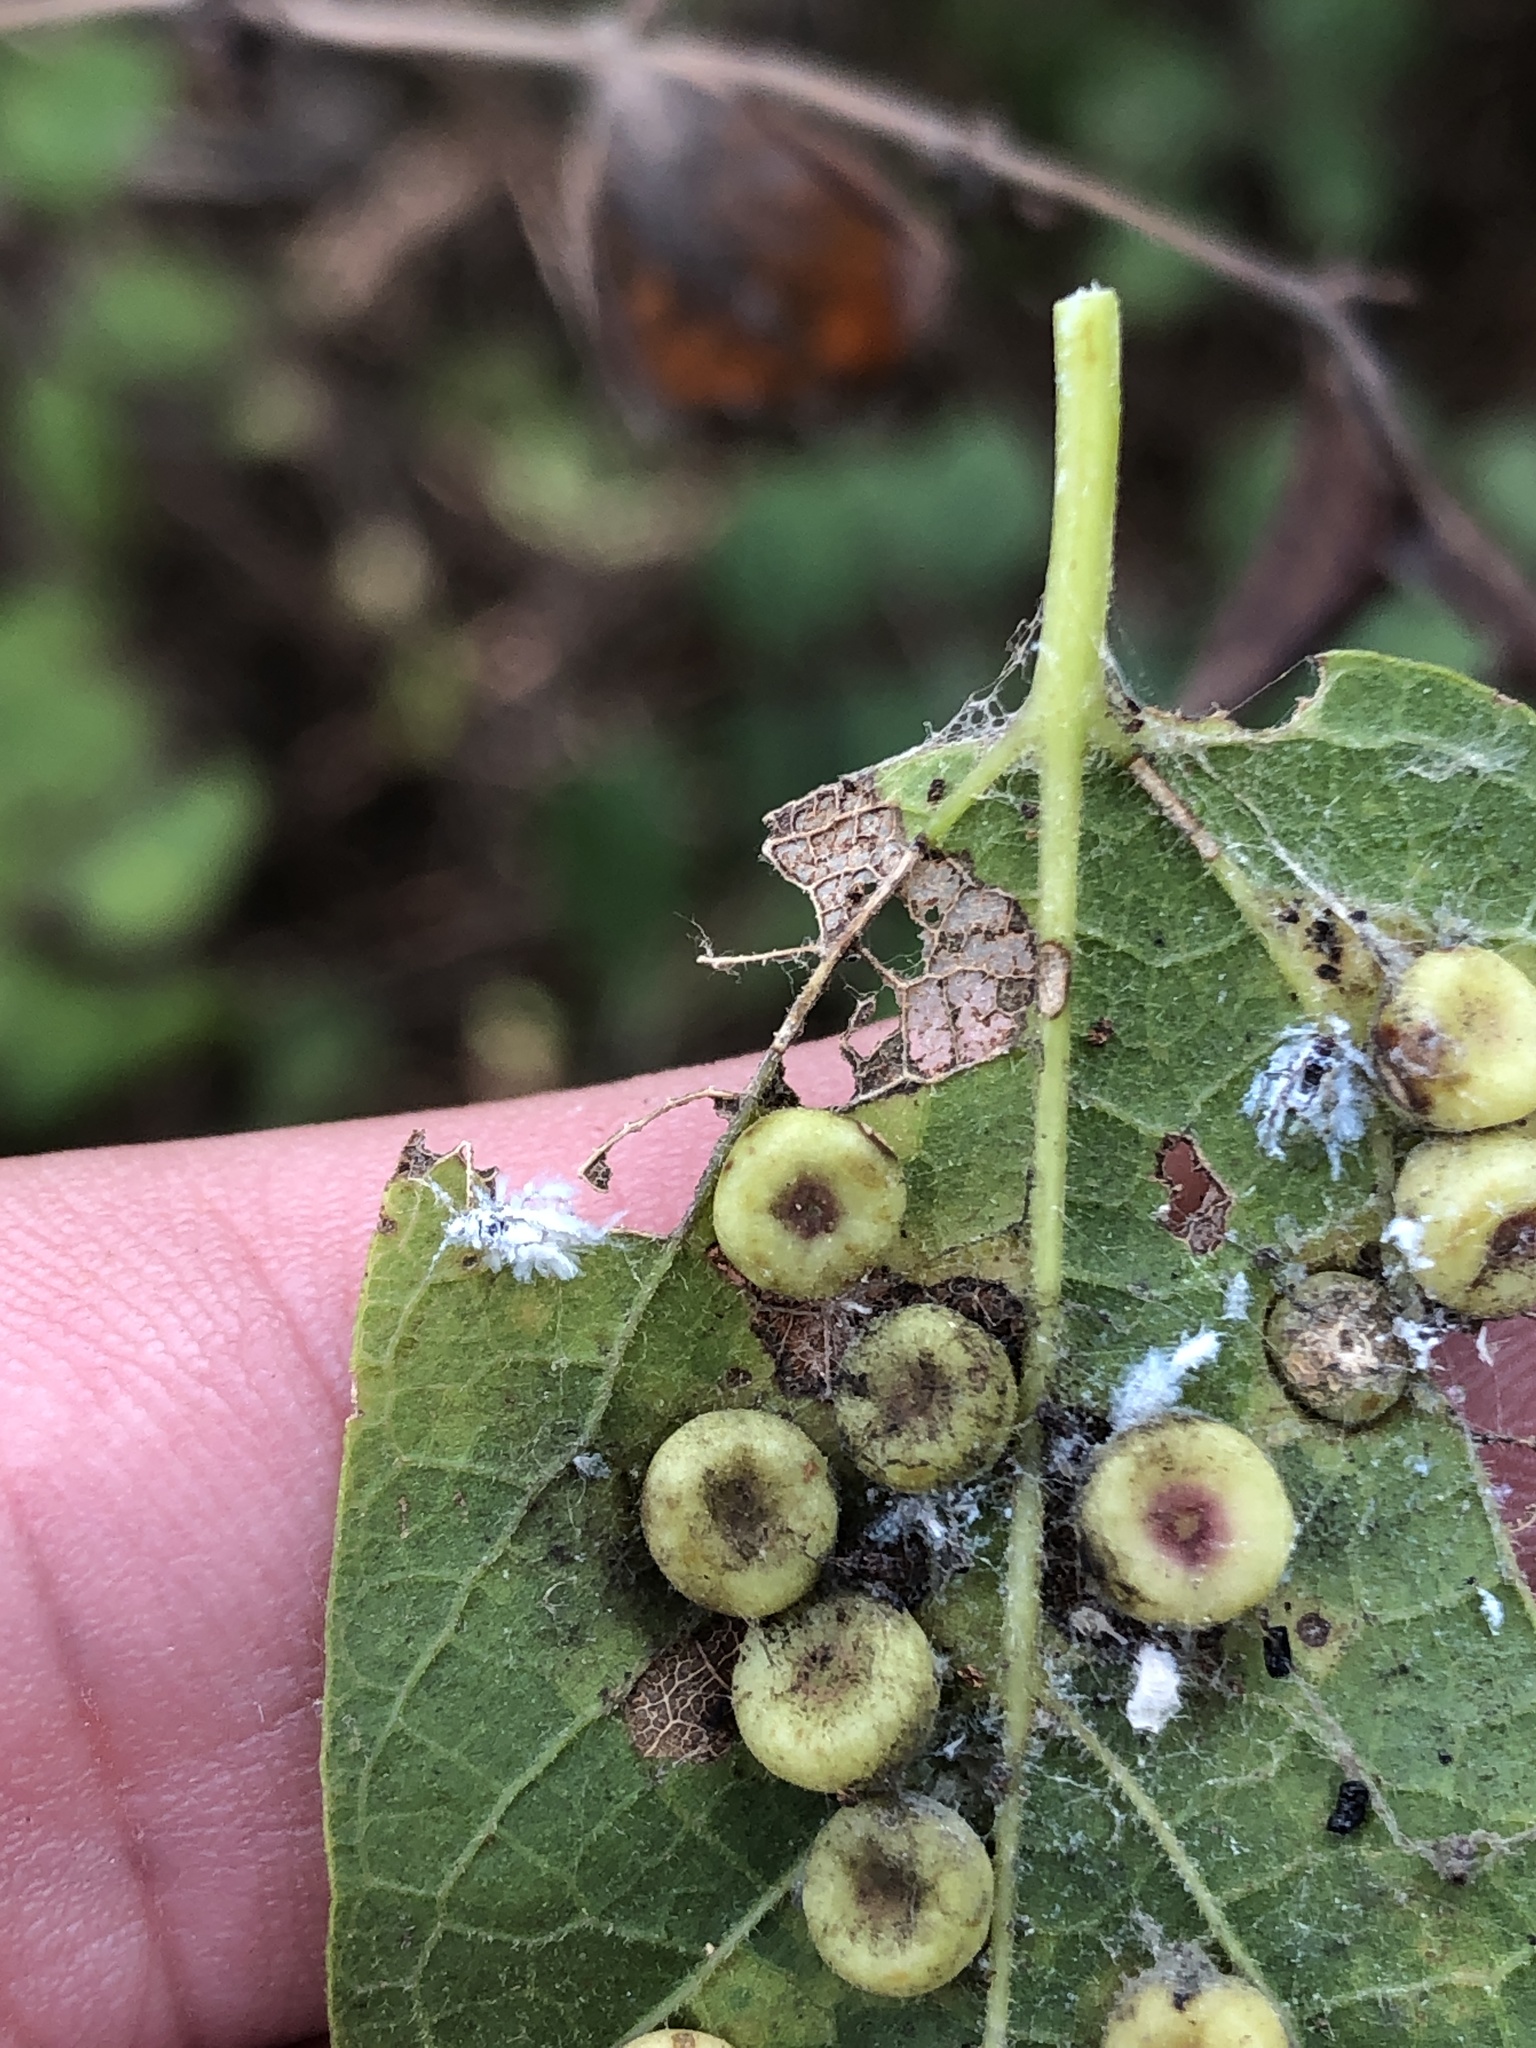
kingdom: Animalia
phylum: Arthropoda
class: Insecta
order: Hemiptera
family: Aphididae
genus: Shivaphis
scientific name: Shivaphis celti
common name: Asian wooly hackberry aphid
